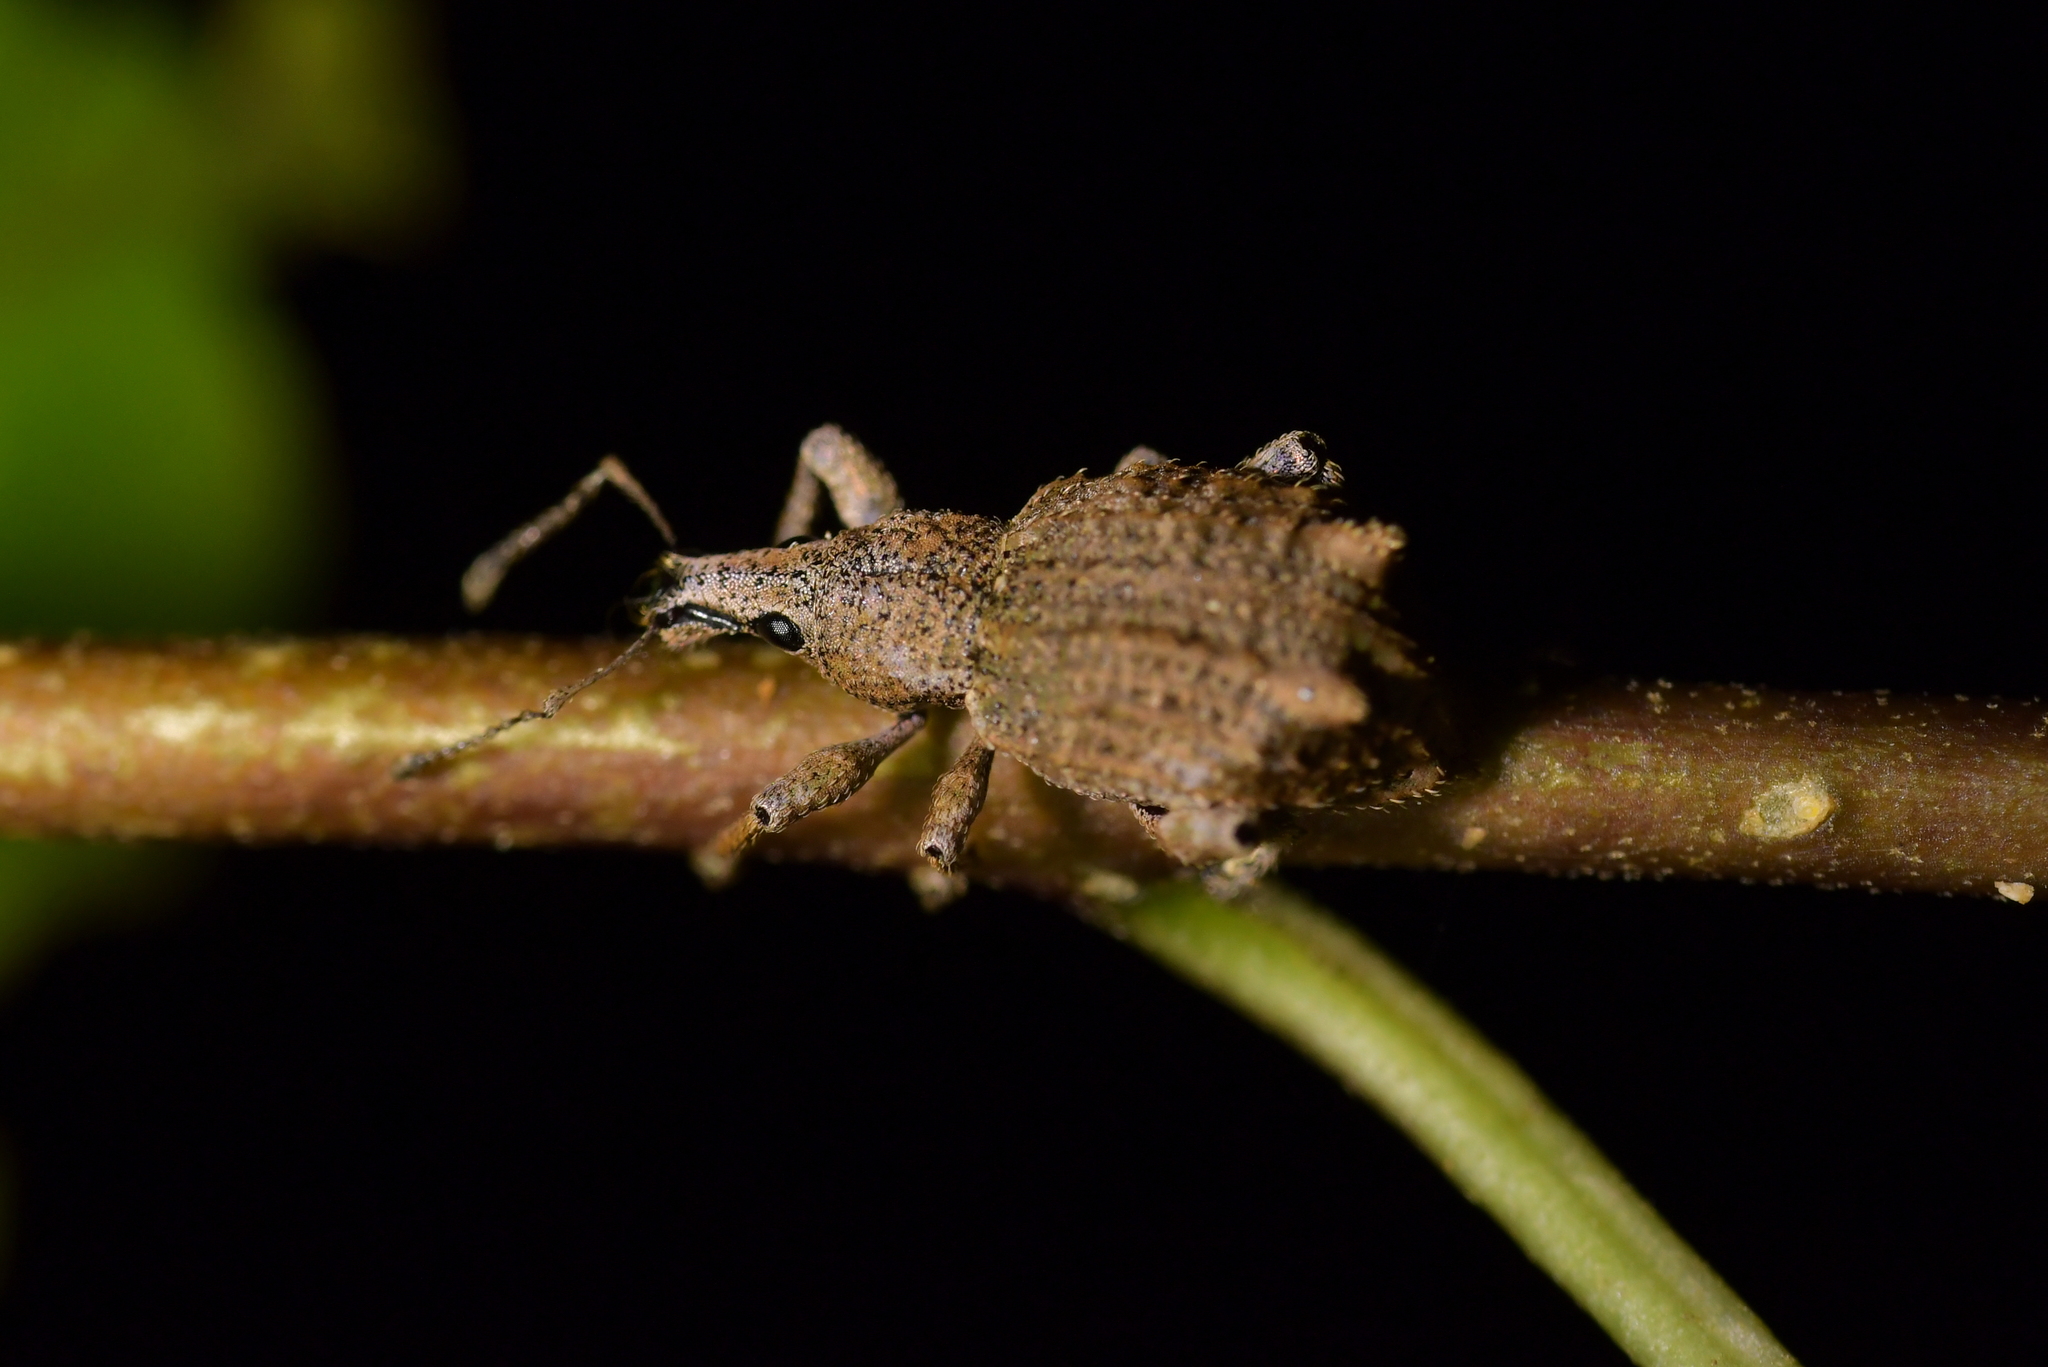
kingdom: Animalia
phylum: Arthropoda
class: Insecta
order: Coleoptera
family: Curculionidae
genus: Catoptes
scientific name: Catoptes binodis
